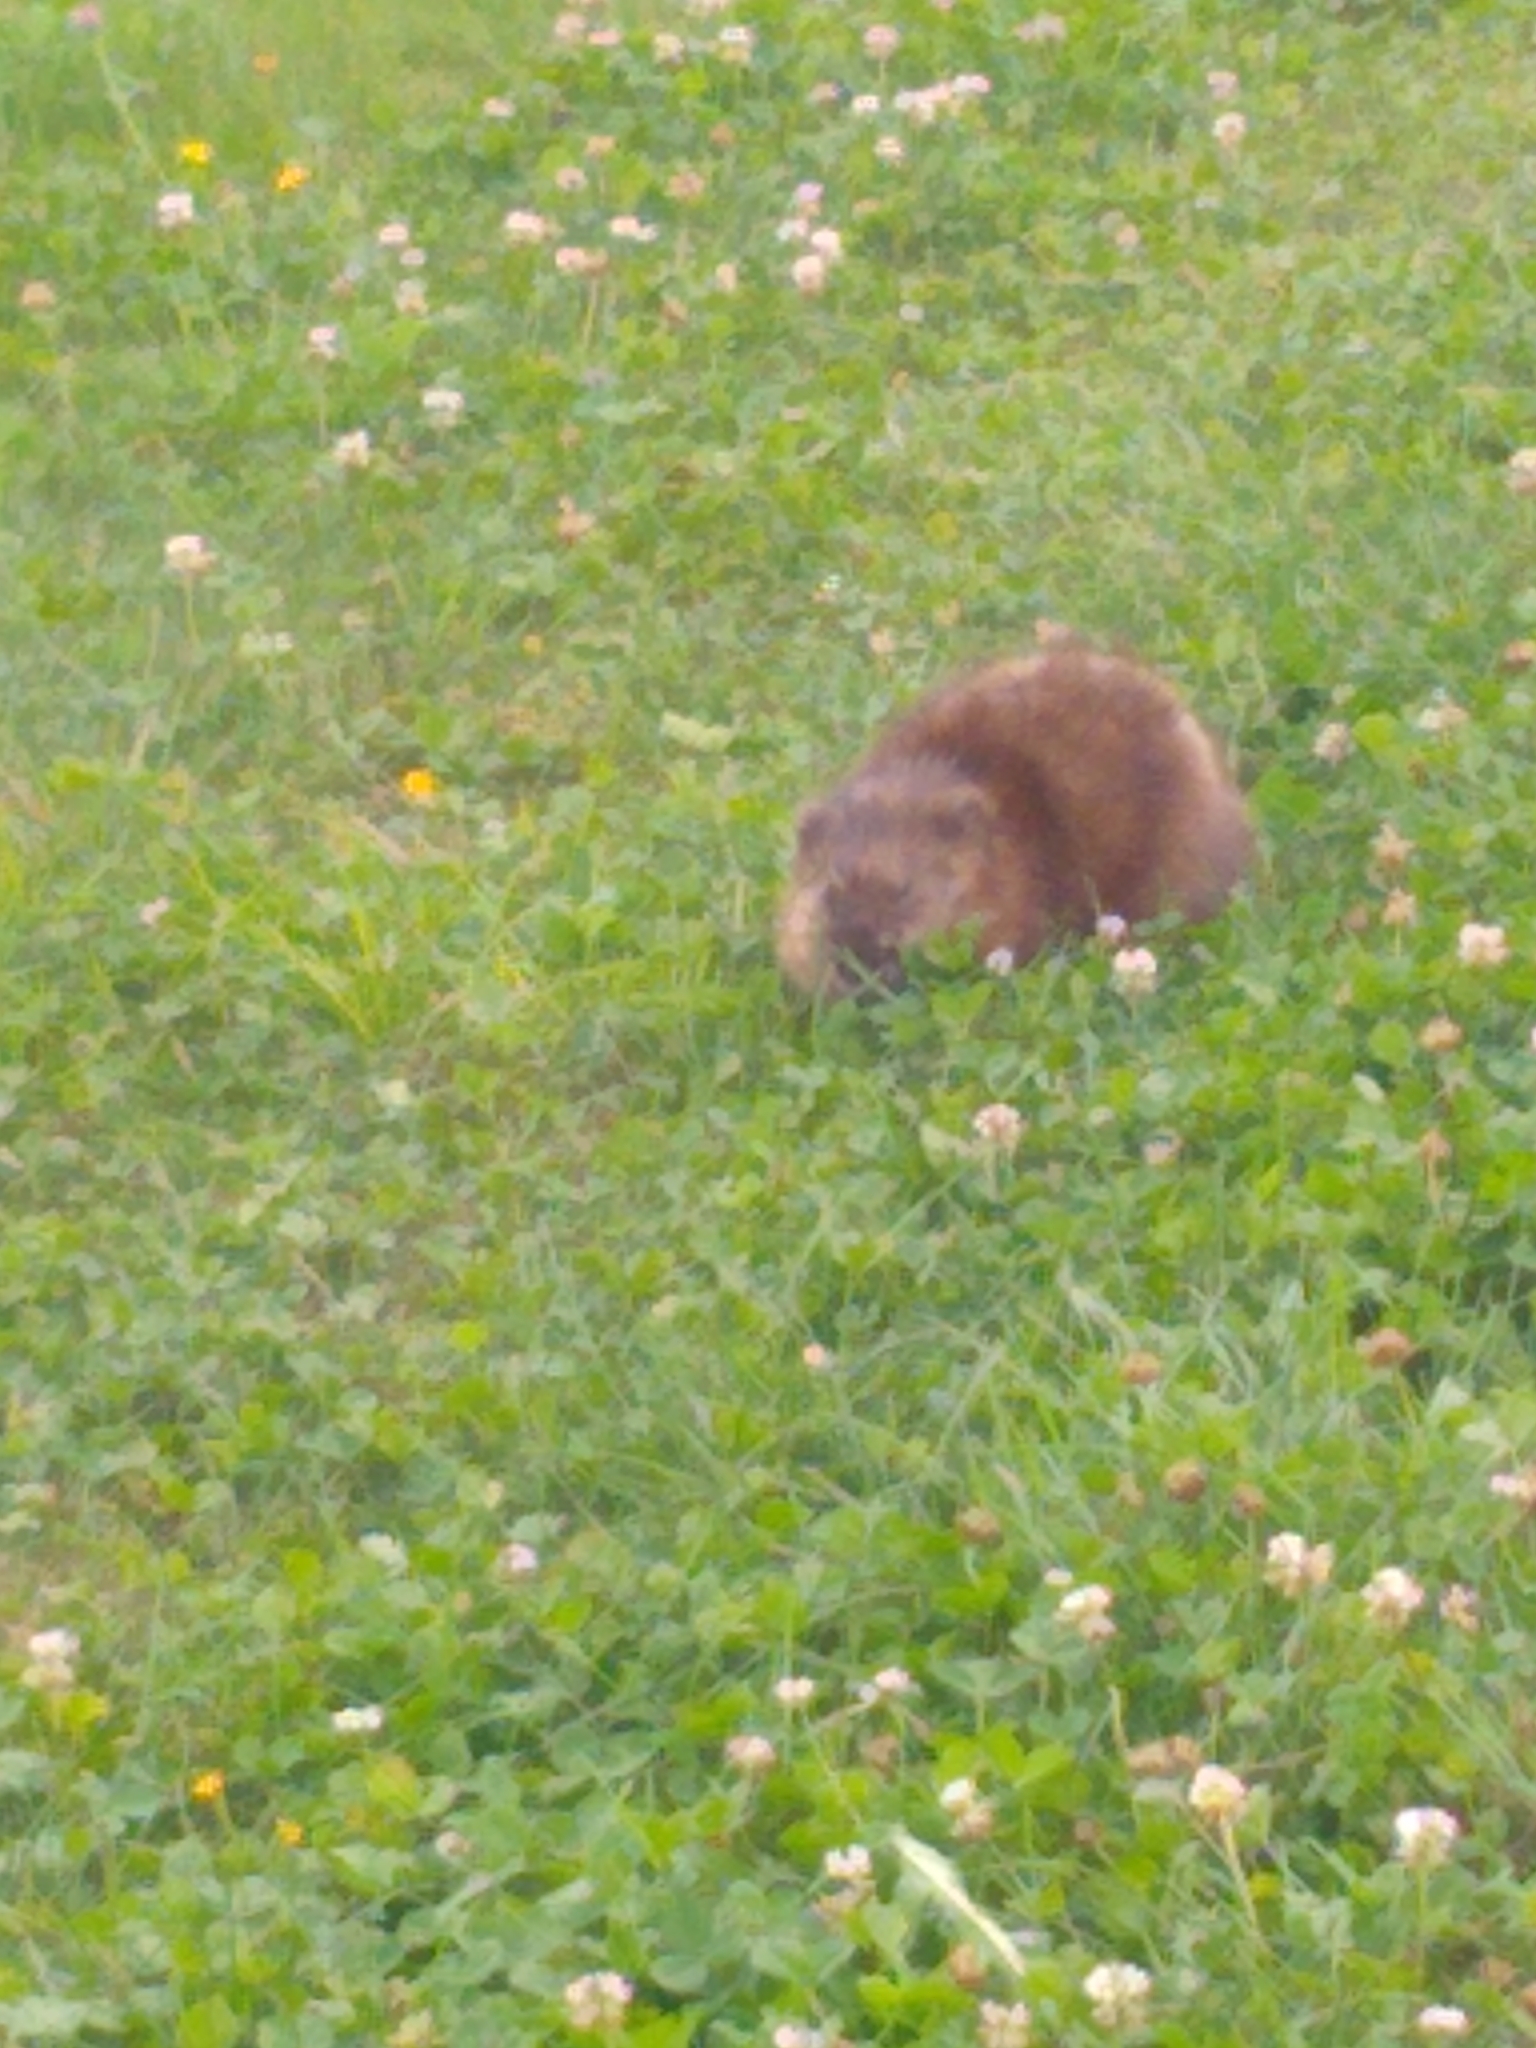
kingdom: Animalia
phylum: Chordata
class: Mammalia
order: Rodentia
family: Cricetidae
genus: Ondatra
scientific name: Ondatra zibethicus
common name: Muskrat
